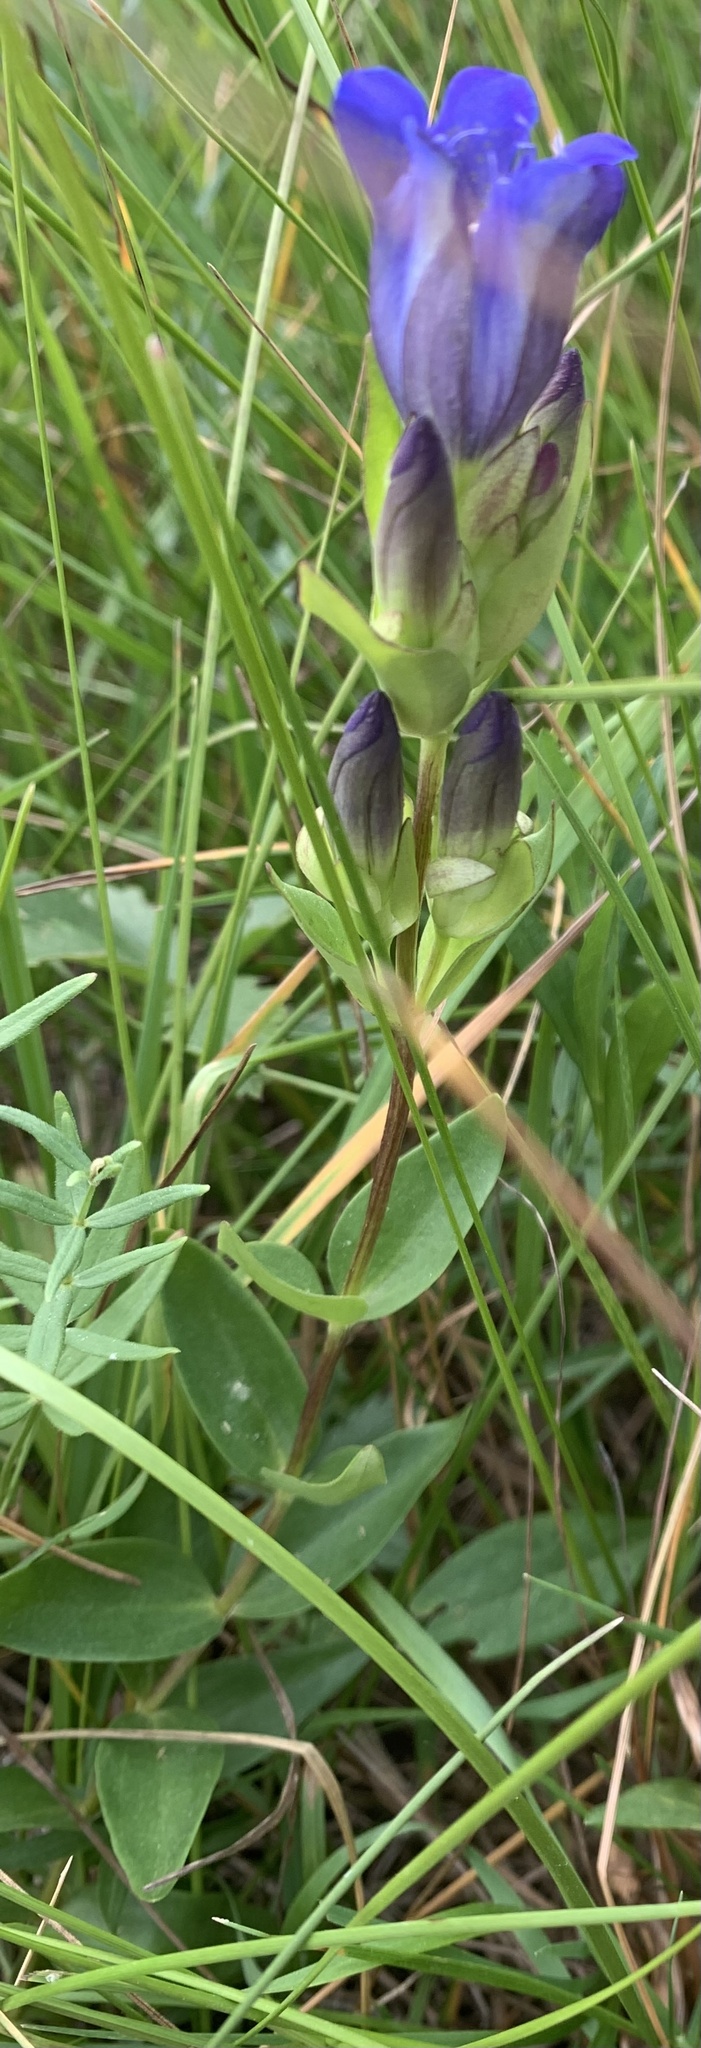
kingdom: Plantae
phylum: Tracheophyta
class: Magnoliopsida
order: Gentianales
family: Gentianaceae
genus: Gentiana
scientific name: Gentiana affinis
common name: Rocky mountain gentian
